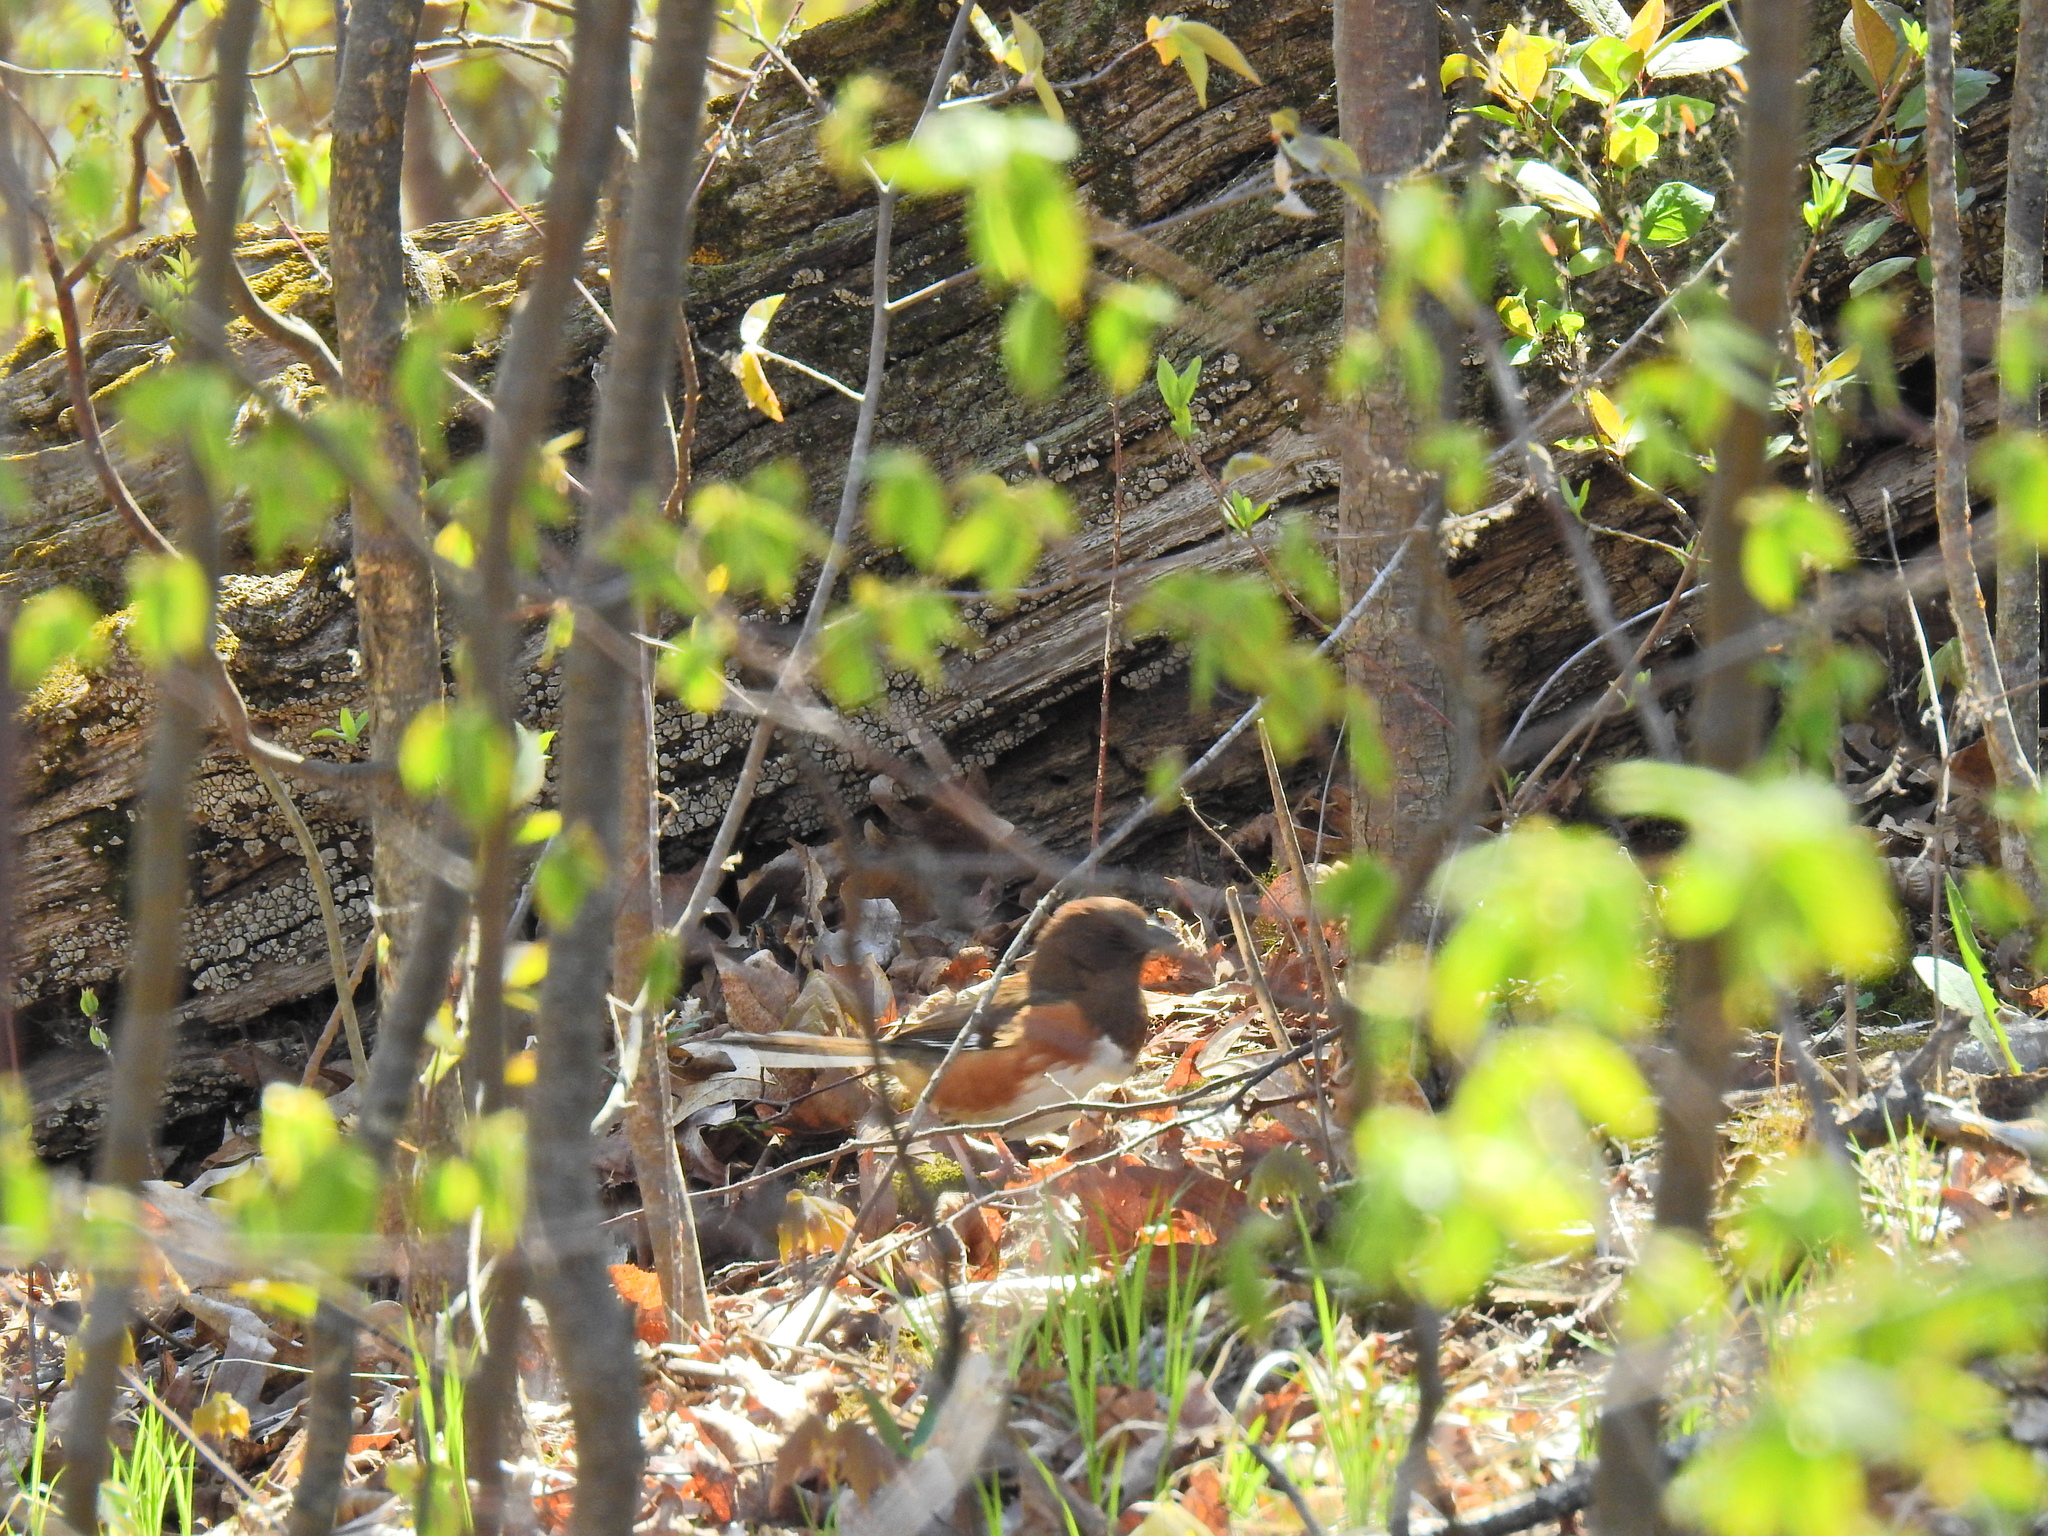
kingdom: Animalia
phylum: Chordata
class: Aves
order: Passeriformes
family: Passerellidae
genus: Pipilo
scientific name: Pipilo erythrophthalmus
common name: Eastern towhee
